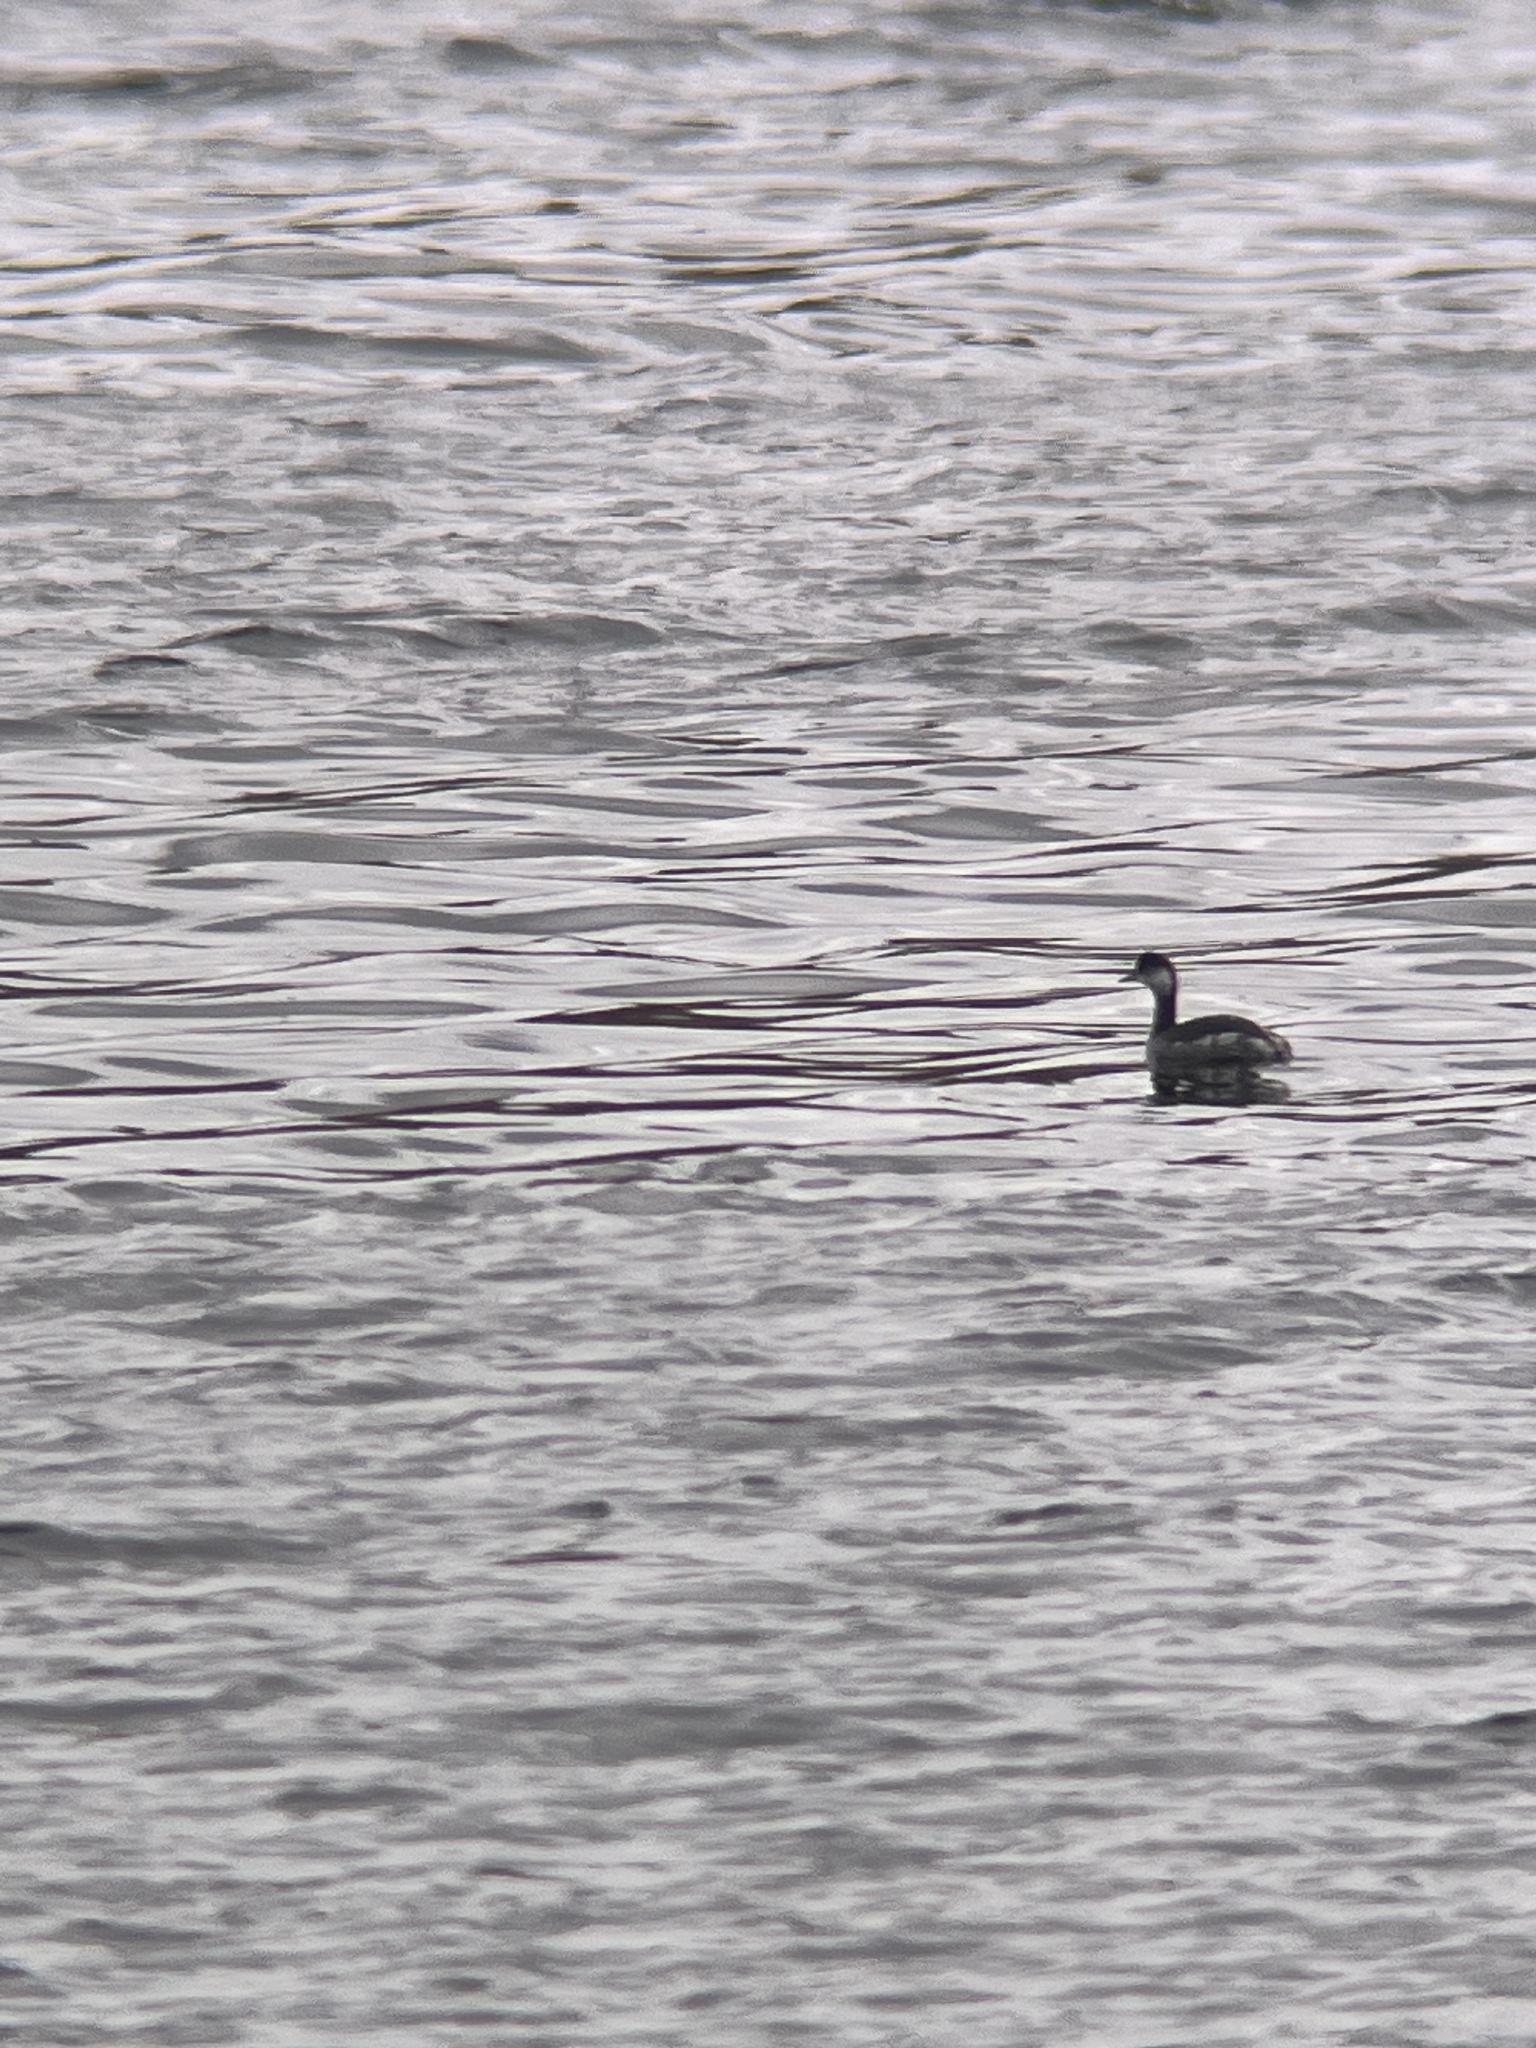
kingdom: Animalia
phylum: Chordata
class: Aves
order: Podicipediformes
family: Podicipedidae
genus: Podiceps
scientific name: Podiceps nigricollis
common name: Black-necked grebe
